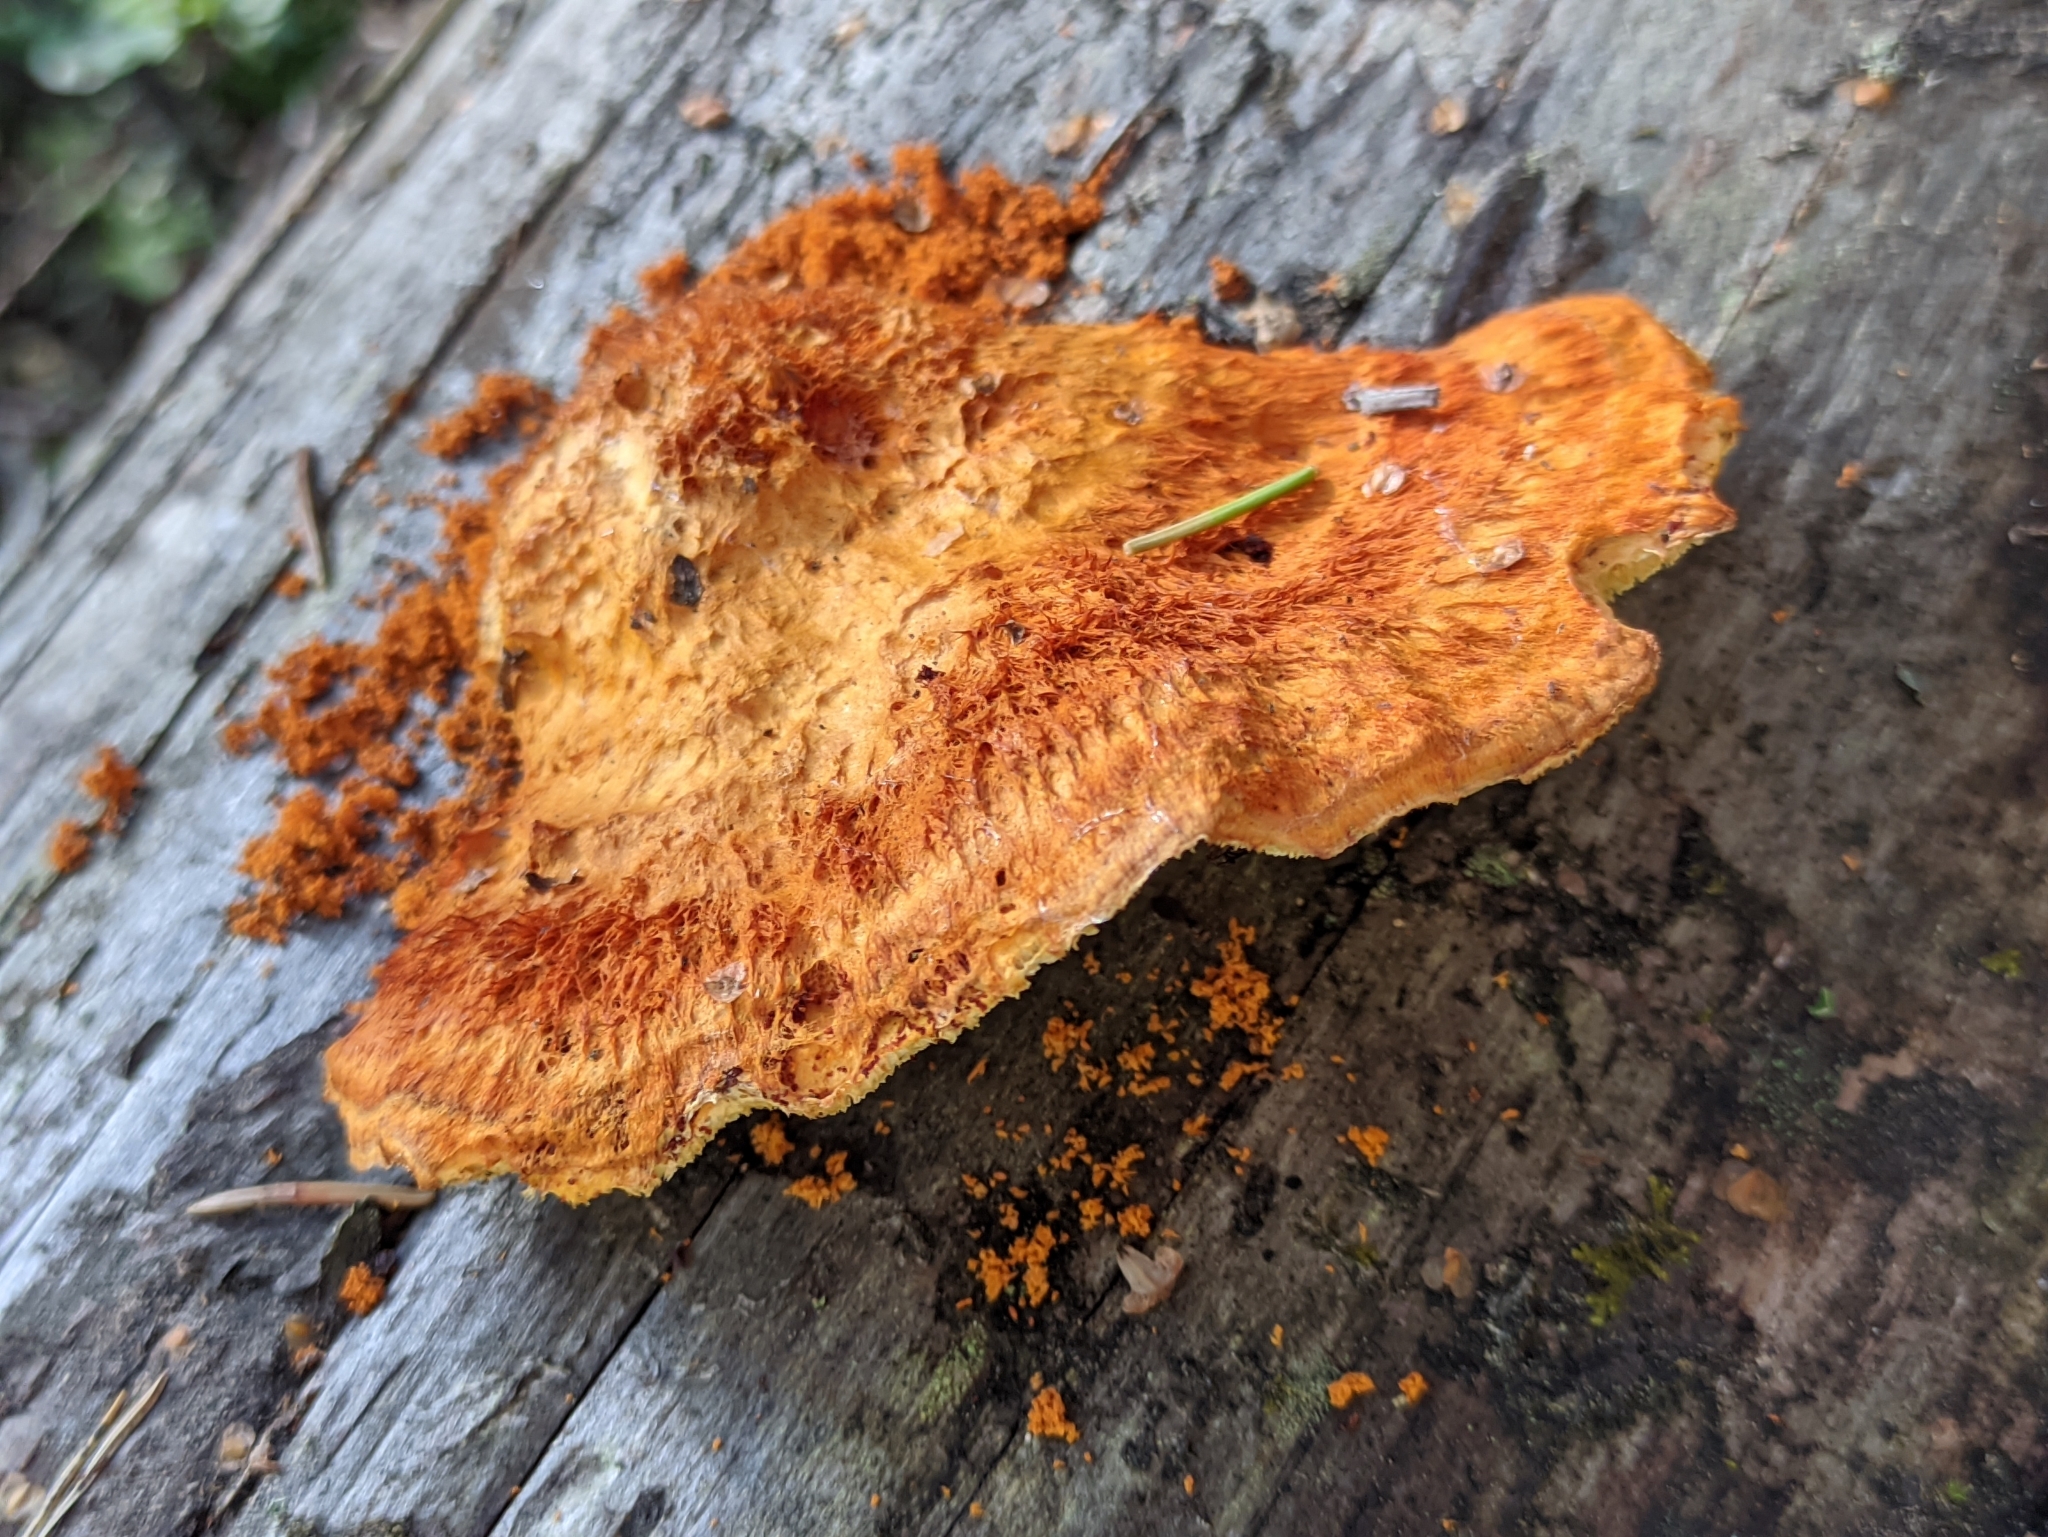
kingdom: Fungi
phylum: Basidiomycota
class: Agaricomycetes
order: Polyporales
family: Pycnoporellaceae
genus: Pycnoporellus
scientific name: Pycnoporellus fulgens
